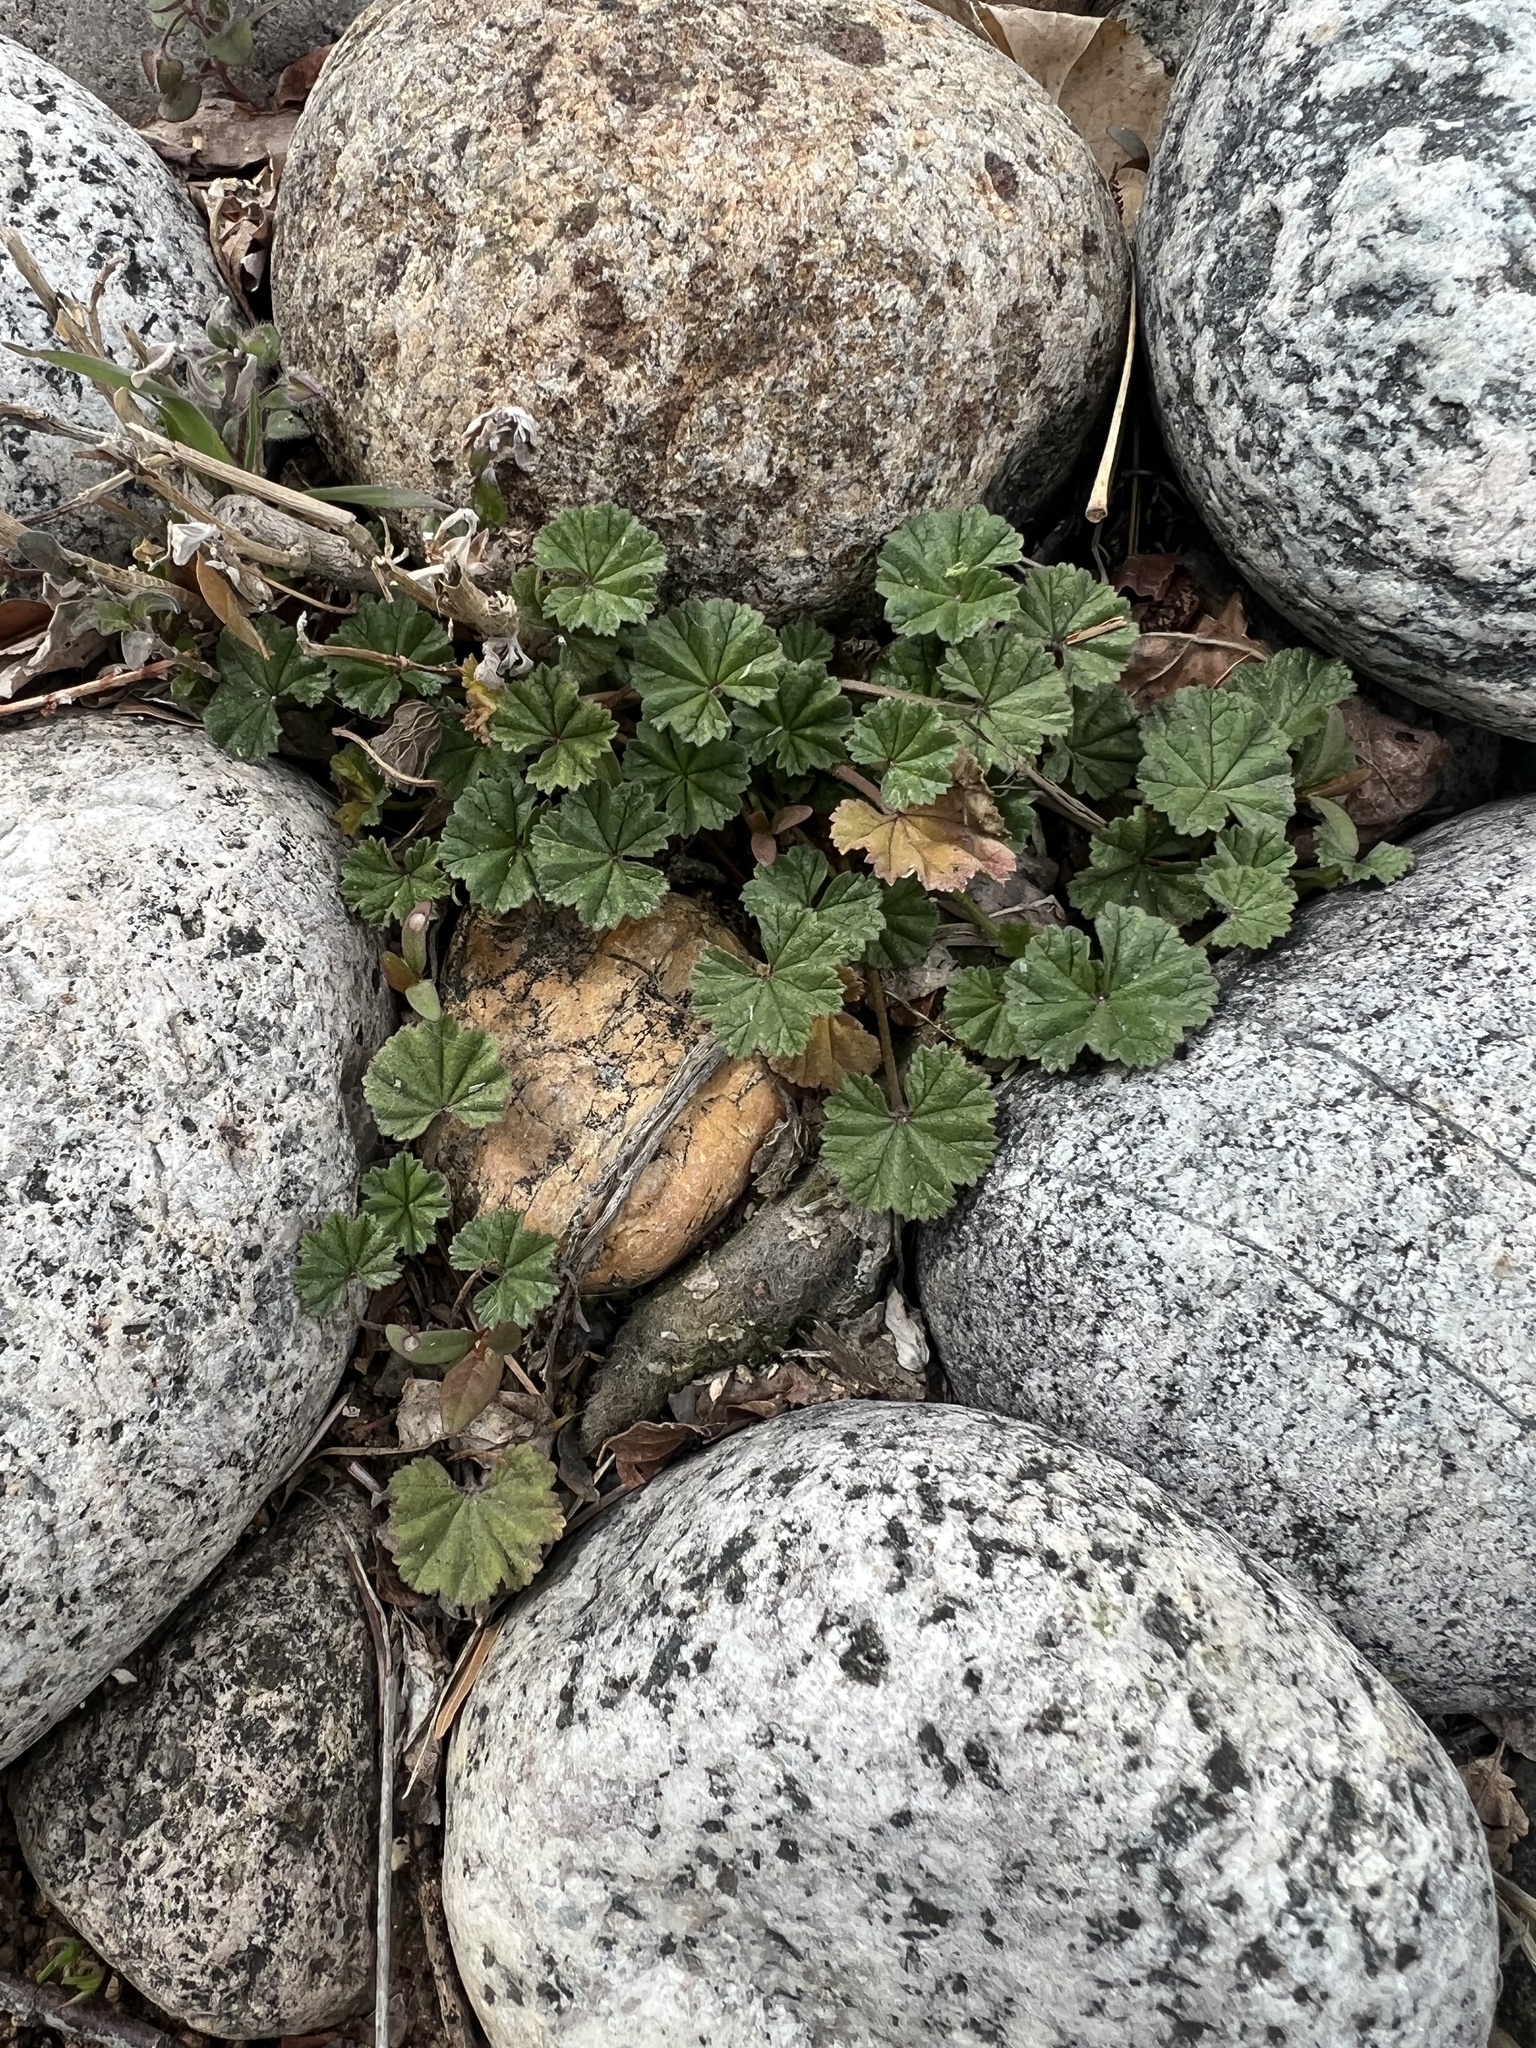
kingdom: Plantae
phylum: Tracheophyta
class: Magnoliopsida
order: Malvales
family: Malvaceae
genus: Malva
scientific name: Malva neglecta
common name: Common mallow
